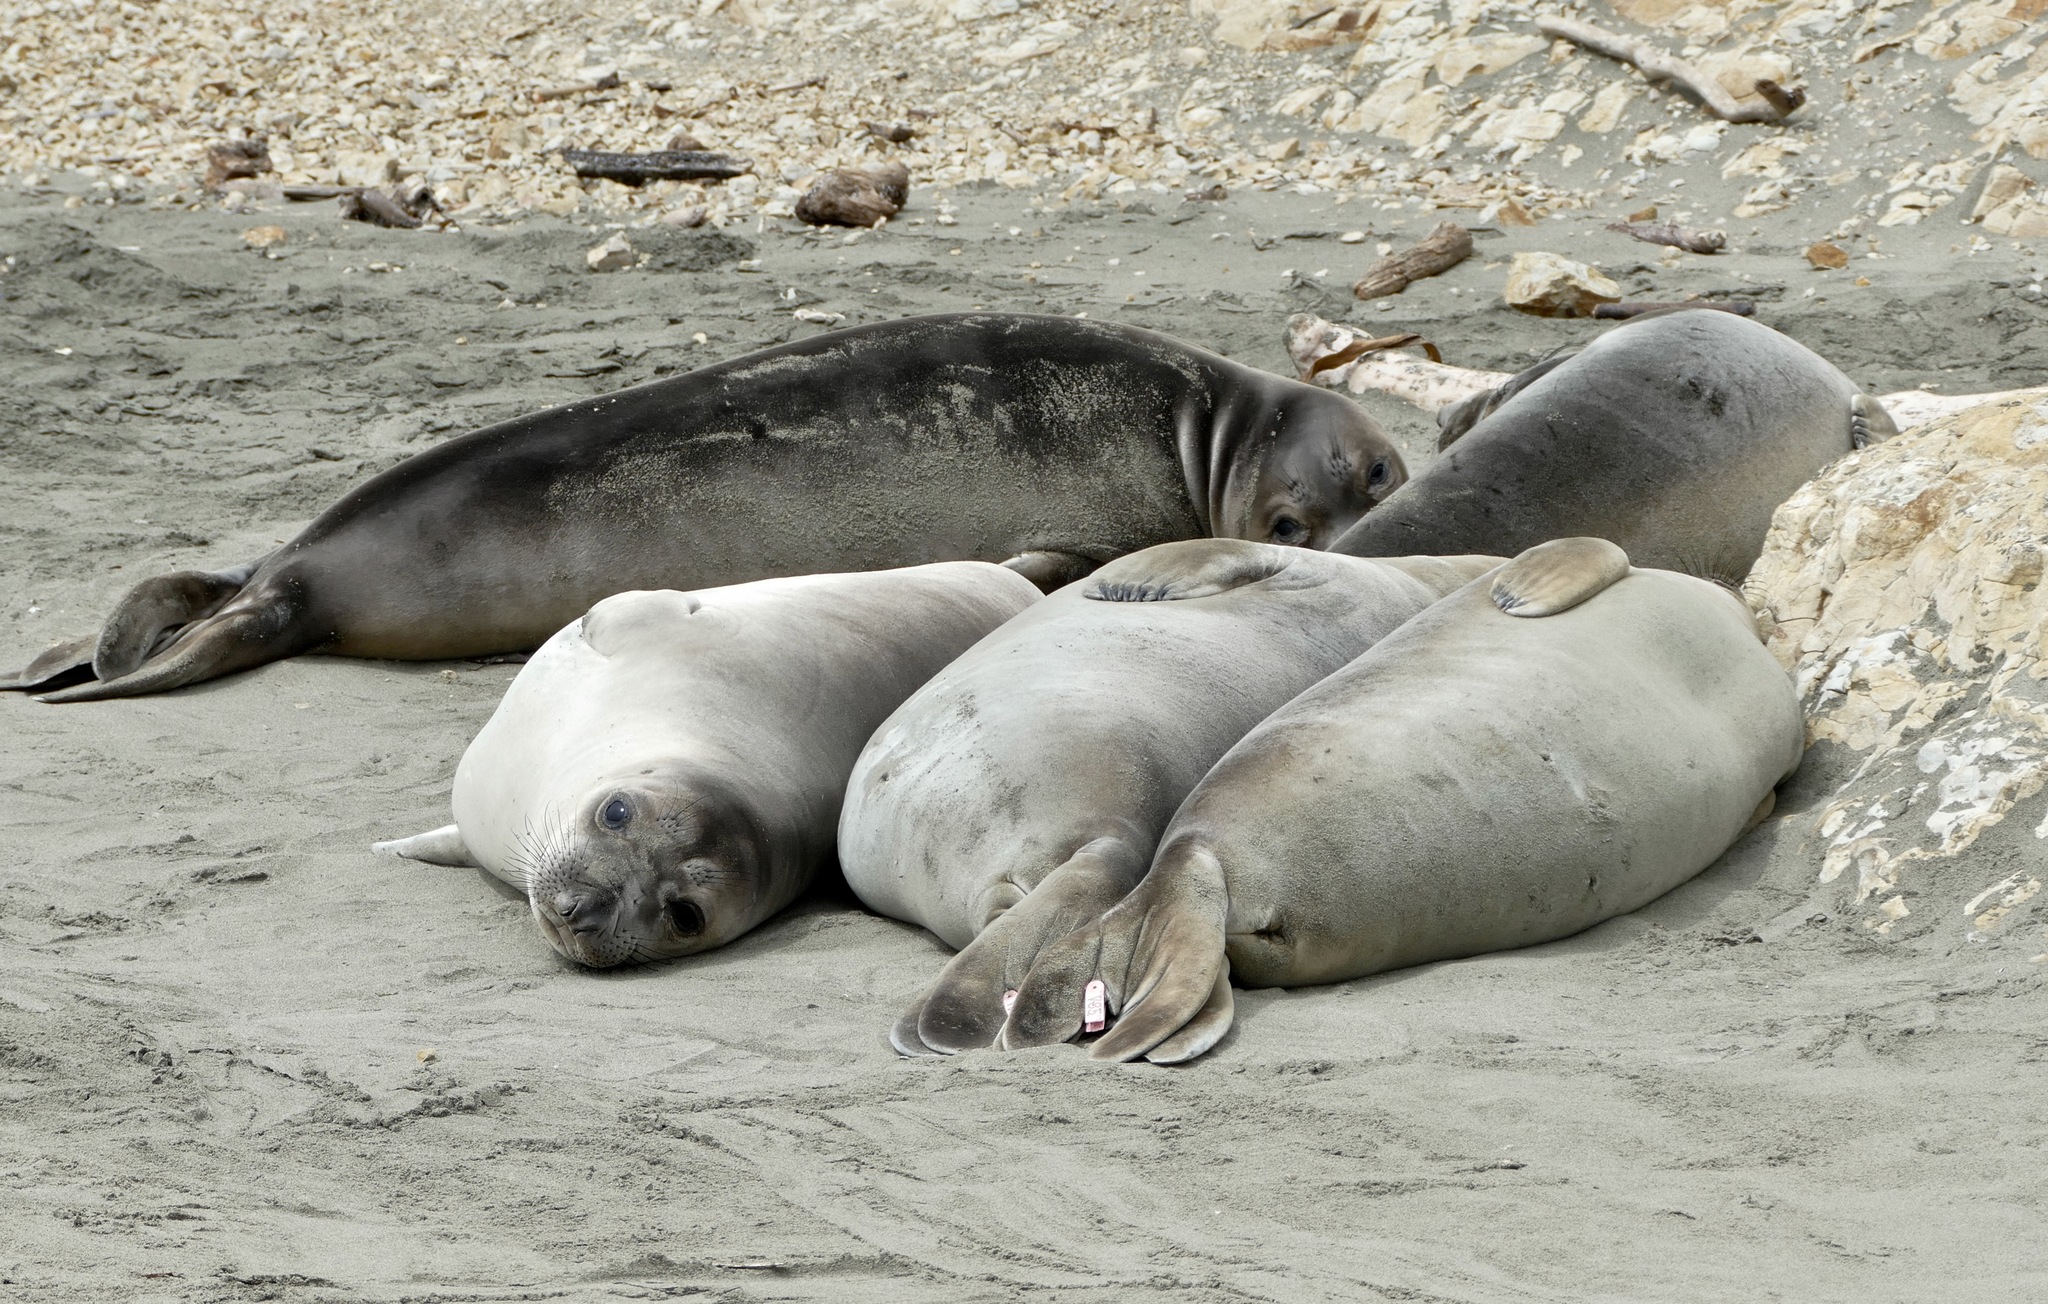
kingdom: Animalia
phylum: Chordata
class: Mammalia
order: Carnivora
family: Phocidae
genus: Mirounga
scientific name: Mirounga angustirostris
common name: Northern elephant seal
